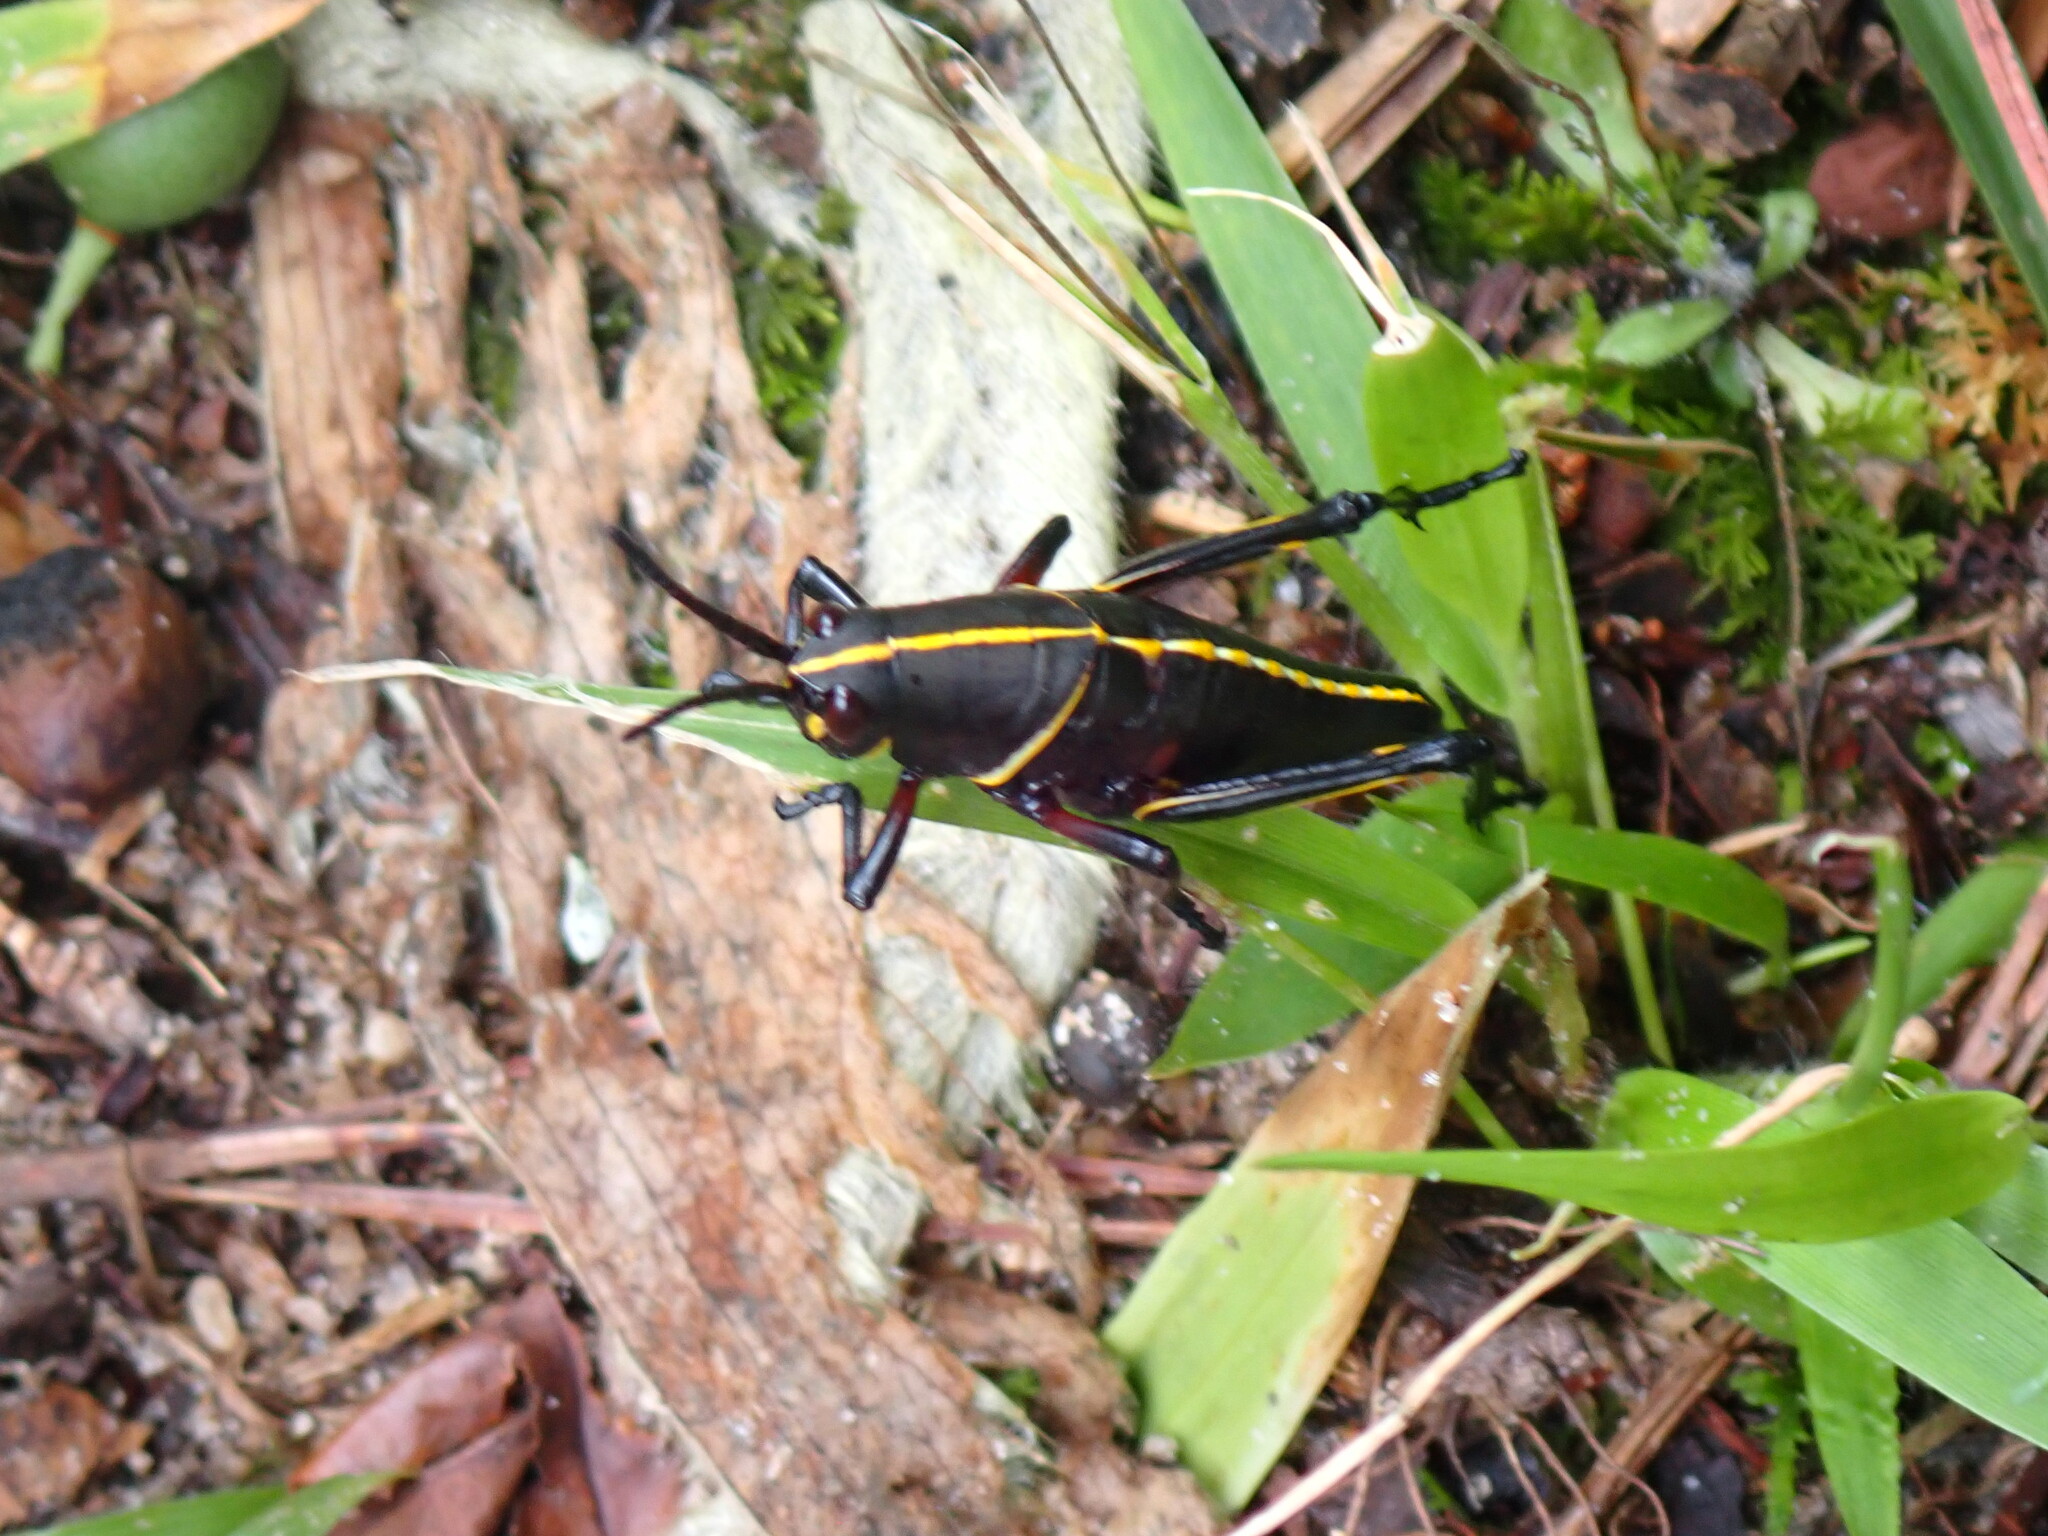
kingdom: Animalia
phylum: Arthropoda
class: Insecta
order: Orthoptera
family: Romaleidae
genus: Romalea
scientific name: Romalea microptera
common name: Eastern lubber grasshopper
